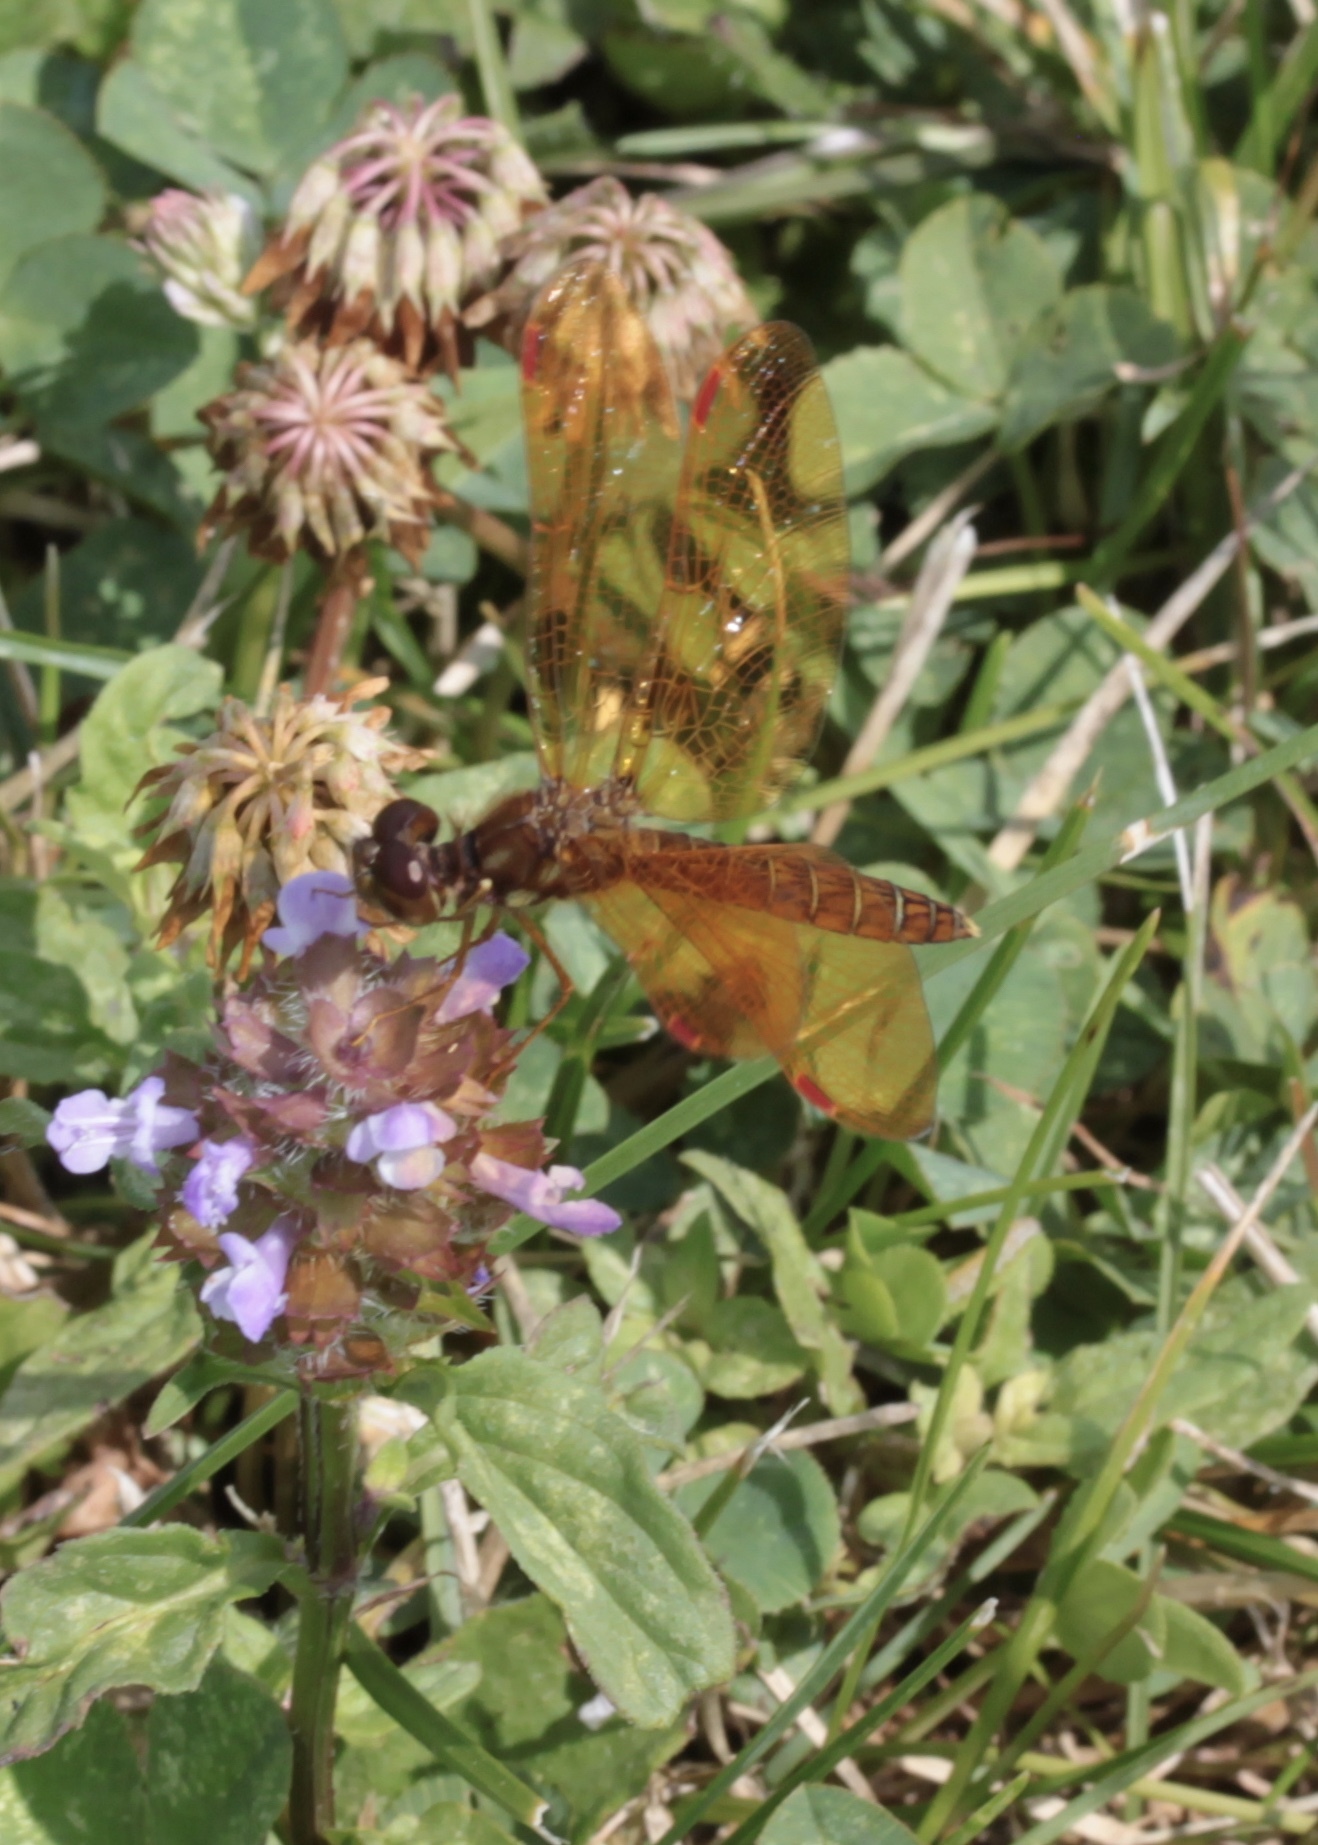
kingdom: Animalia
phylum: Arthropoda
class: Insecta
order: Odonata
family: Libellulidae
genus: Perithemis
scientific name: Perithemis tenera
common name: Eastern amberwing
